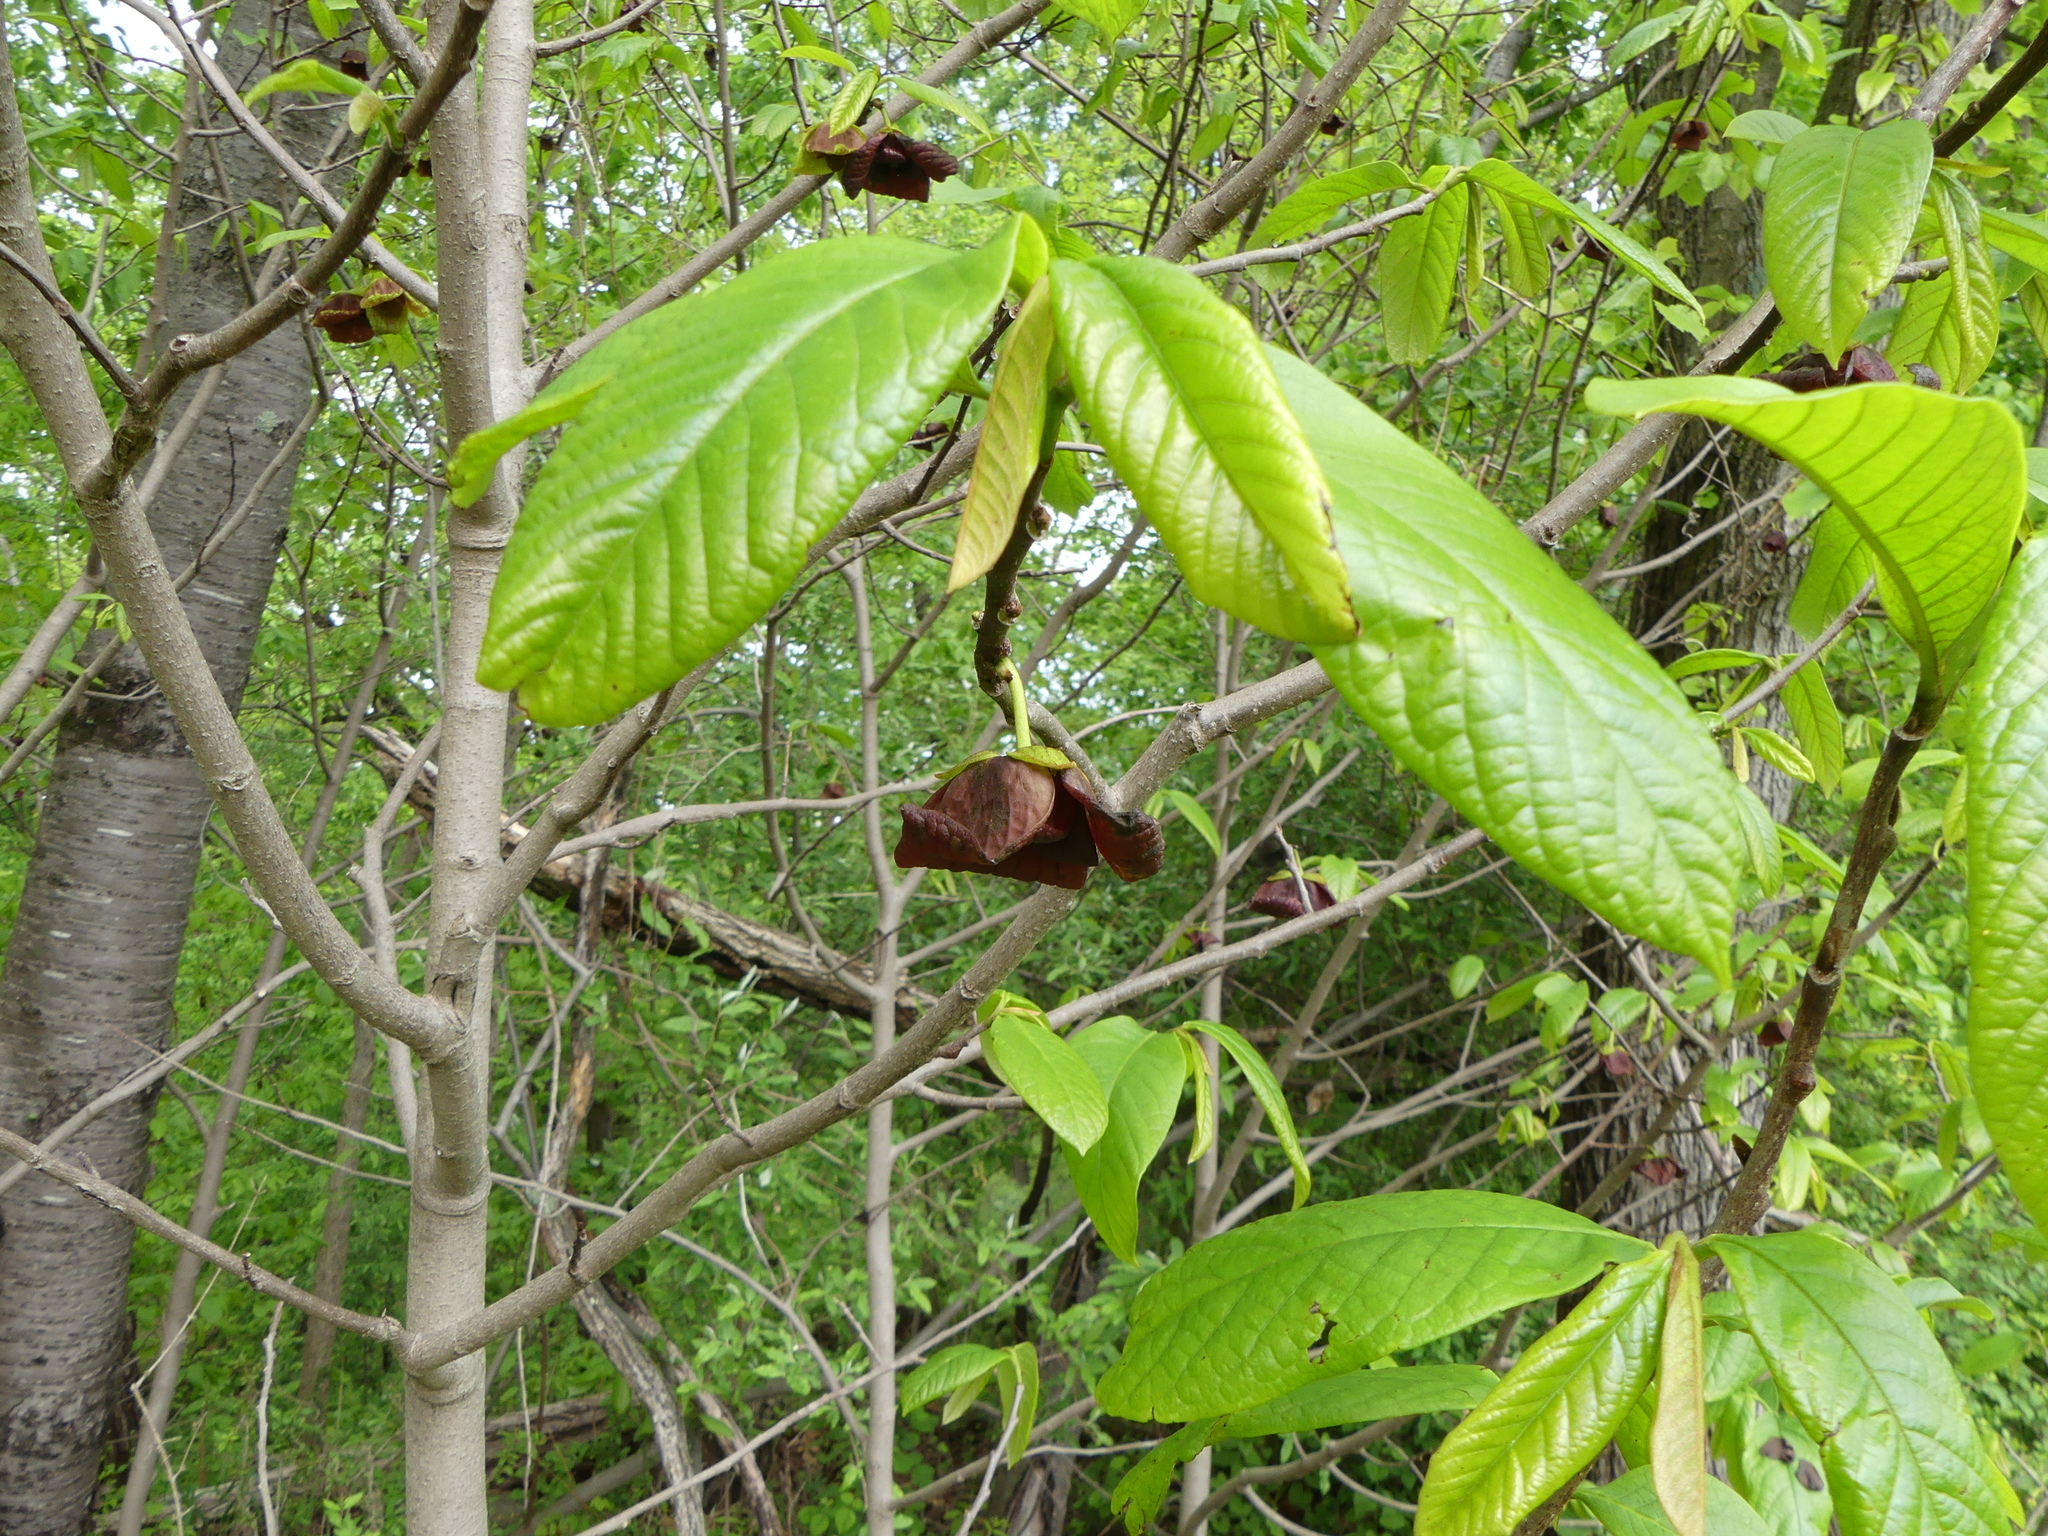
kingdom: Plantae
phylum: Tracheophyta
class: Magnoliopsida
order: Magnoliales
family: Annonaceae
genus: Asimina
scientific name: Asimina triloba
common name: Dog-banana
